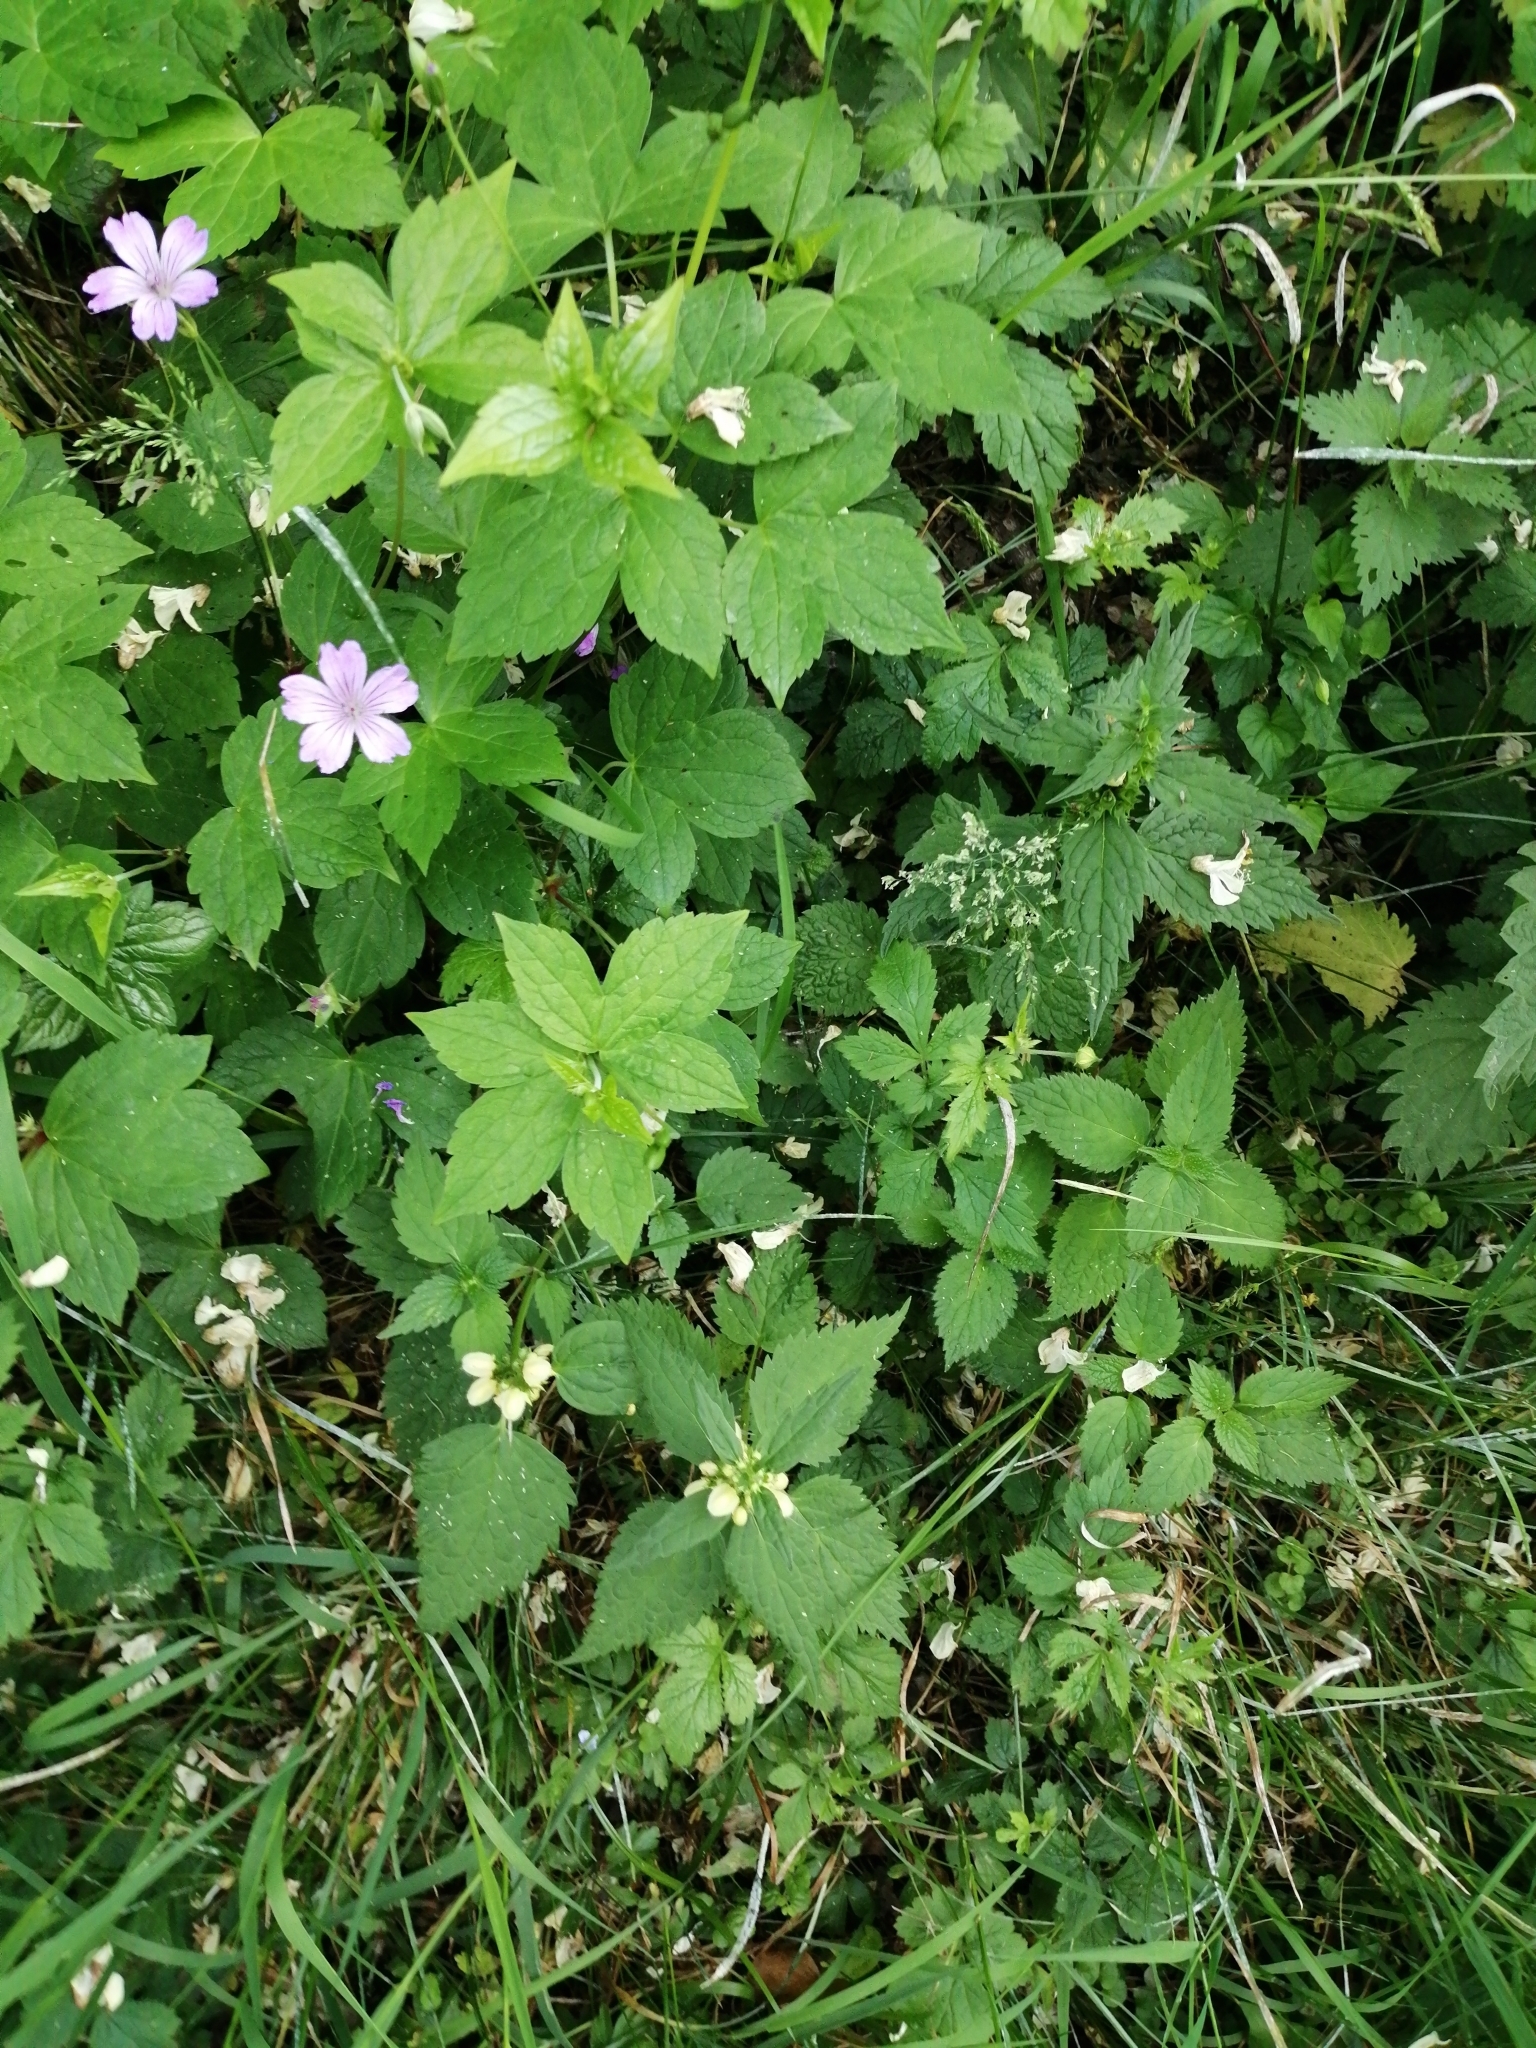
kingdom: Plantae
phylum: Tracheophyta
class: Magnoliopsida
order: Geraniales
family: Geraniaceae
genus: Geranium
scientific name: Geranium nodosum
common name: Knotted crane's-bill
